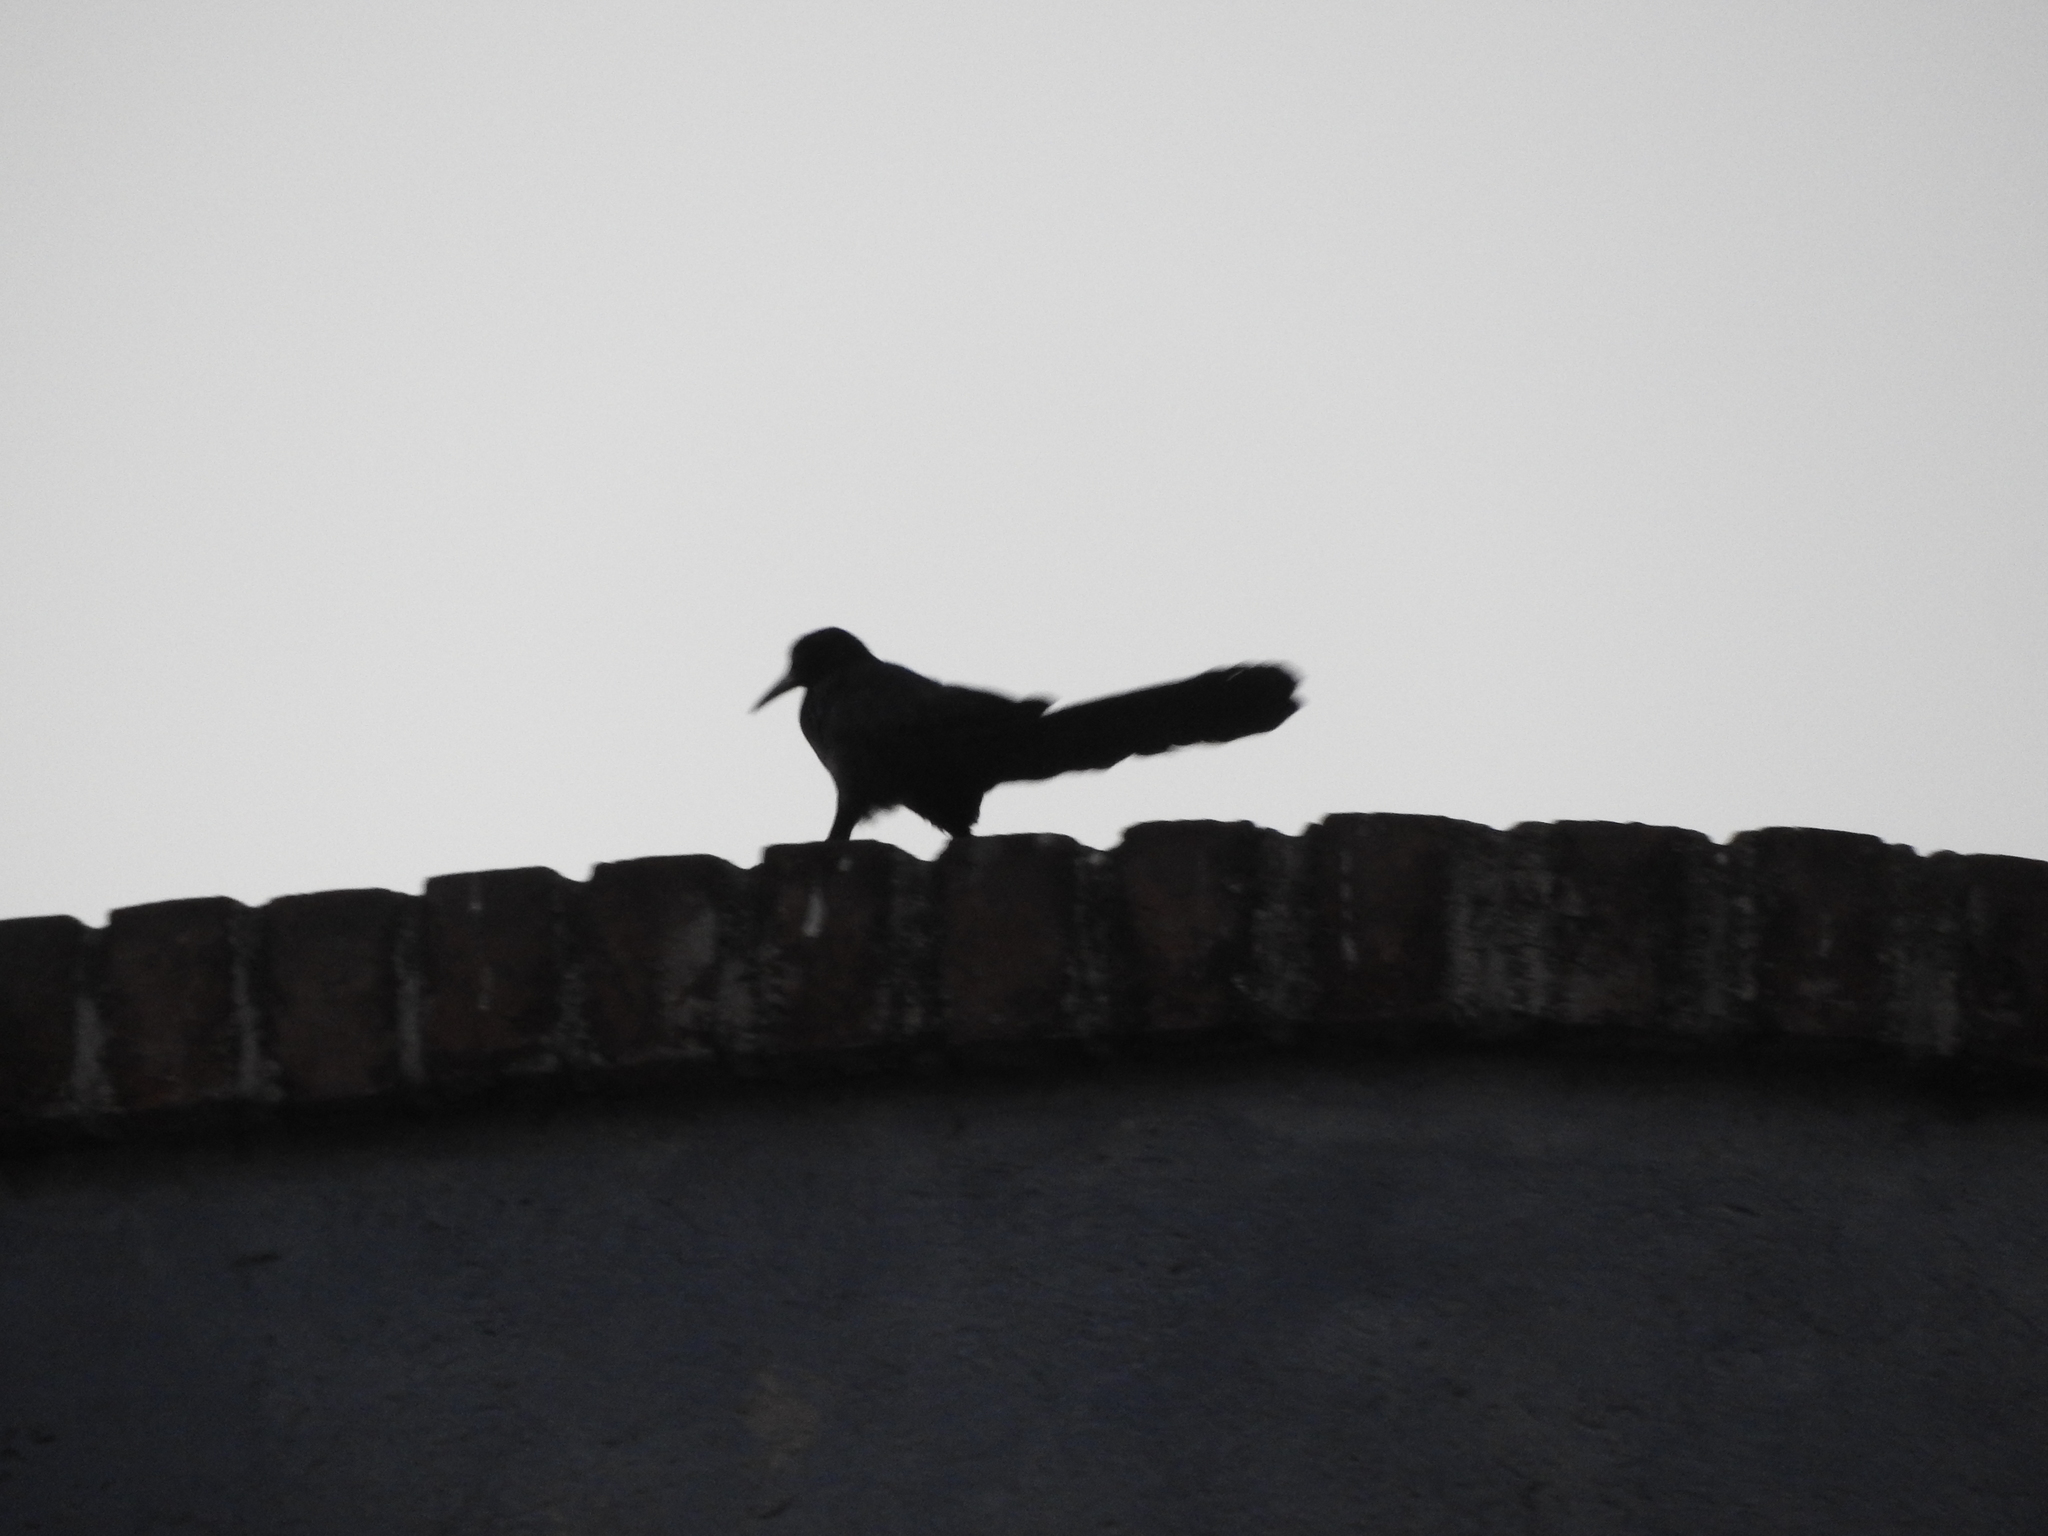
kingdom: Animalia
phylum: Chordata
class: Aves
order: Passeriformes
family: Icteridae
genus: Quiscalus
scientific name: Quiscalus mexicanus
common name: Great-tailed grackle
